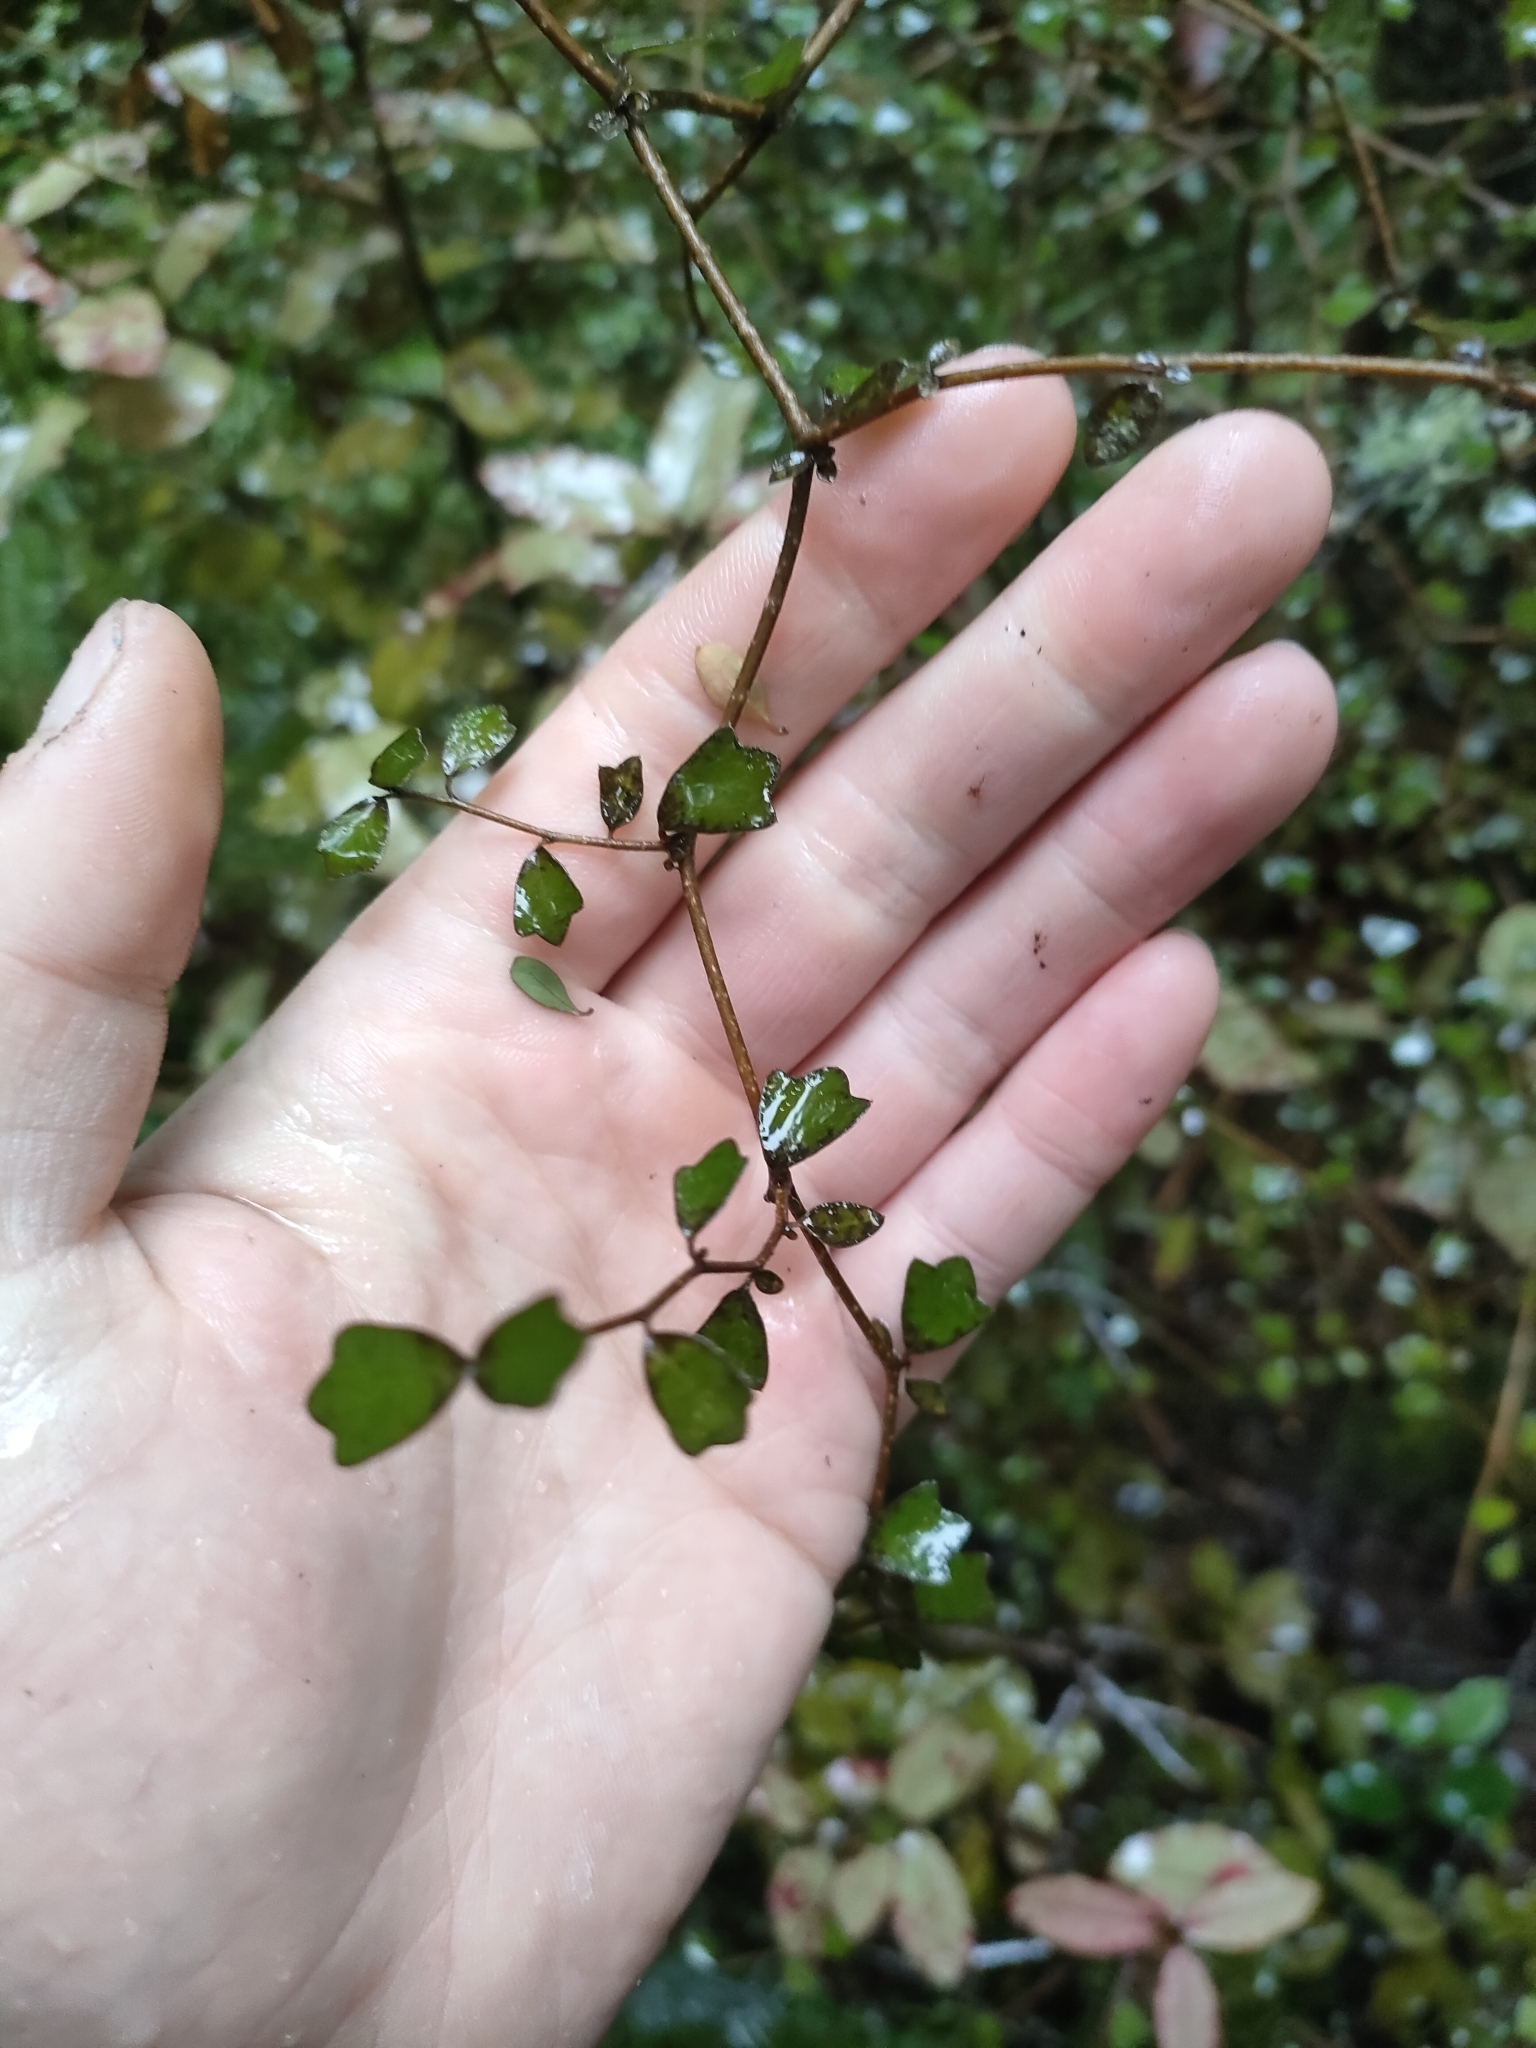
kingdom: Plantae
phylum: Tracheophyta
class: Magnoliopsida
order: Apiales
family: Pennantiaceae
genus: Pennantia
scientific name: Pennantia corymbosa
